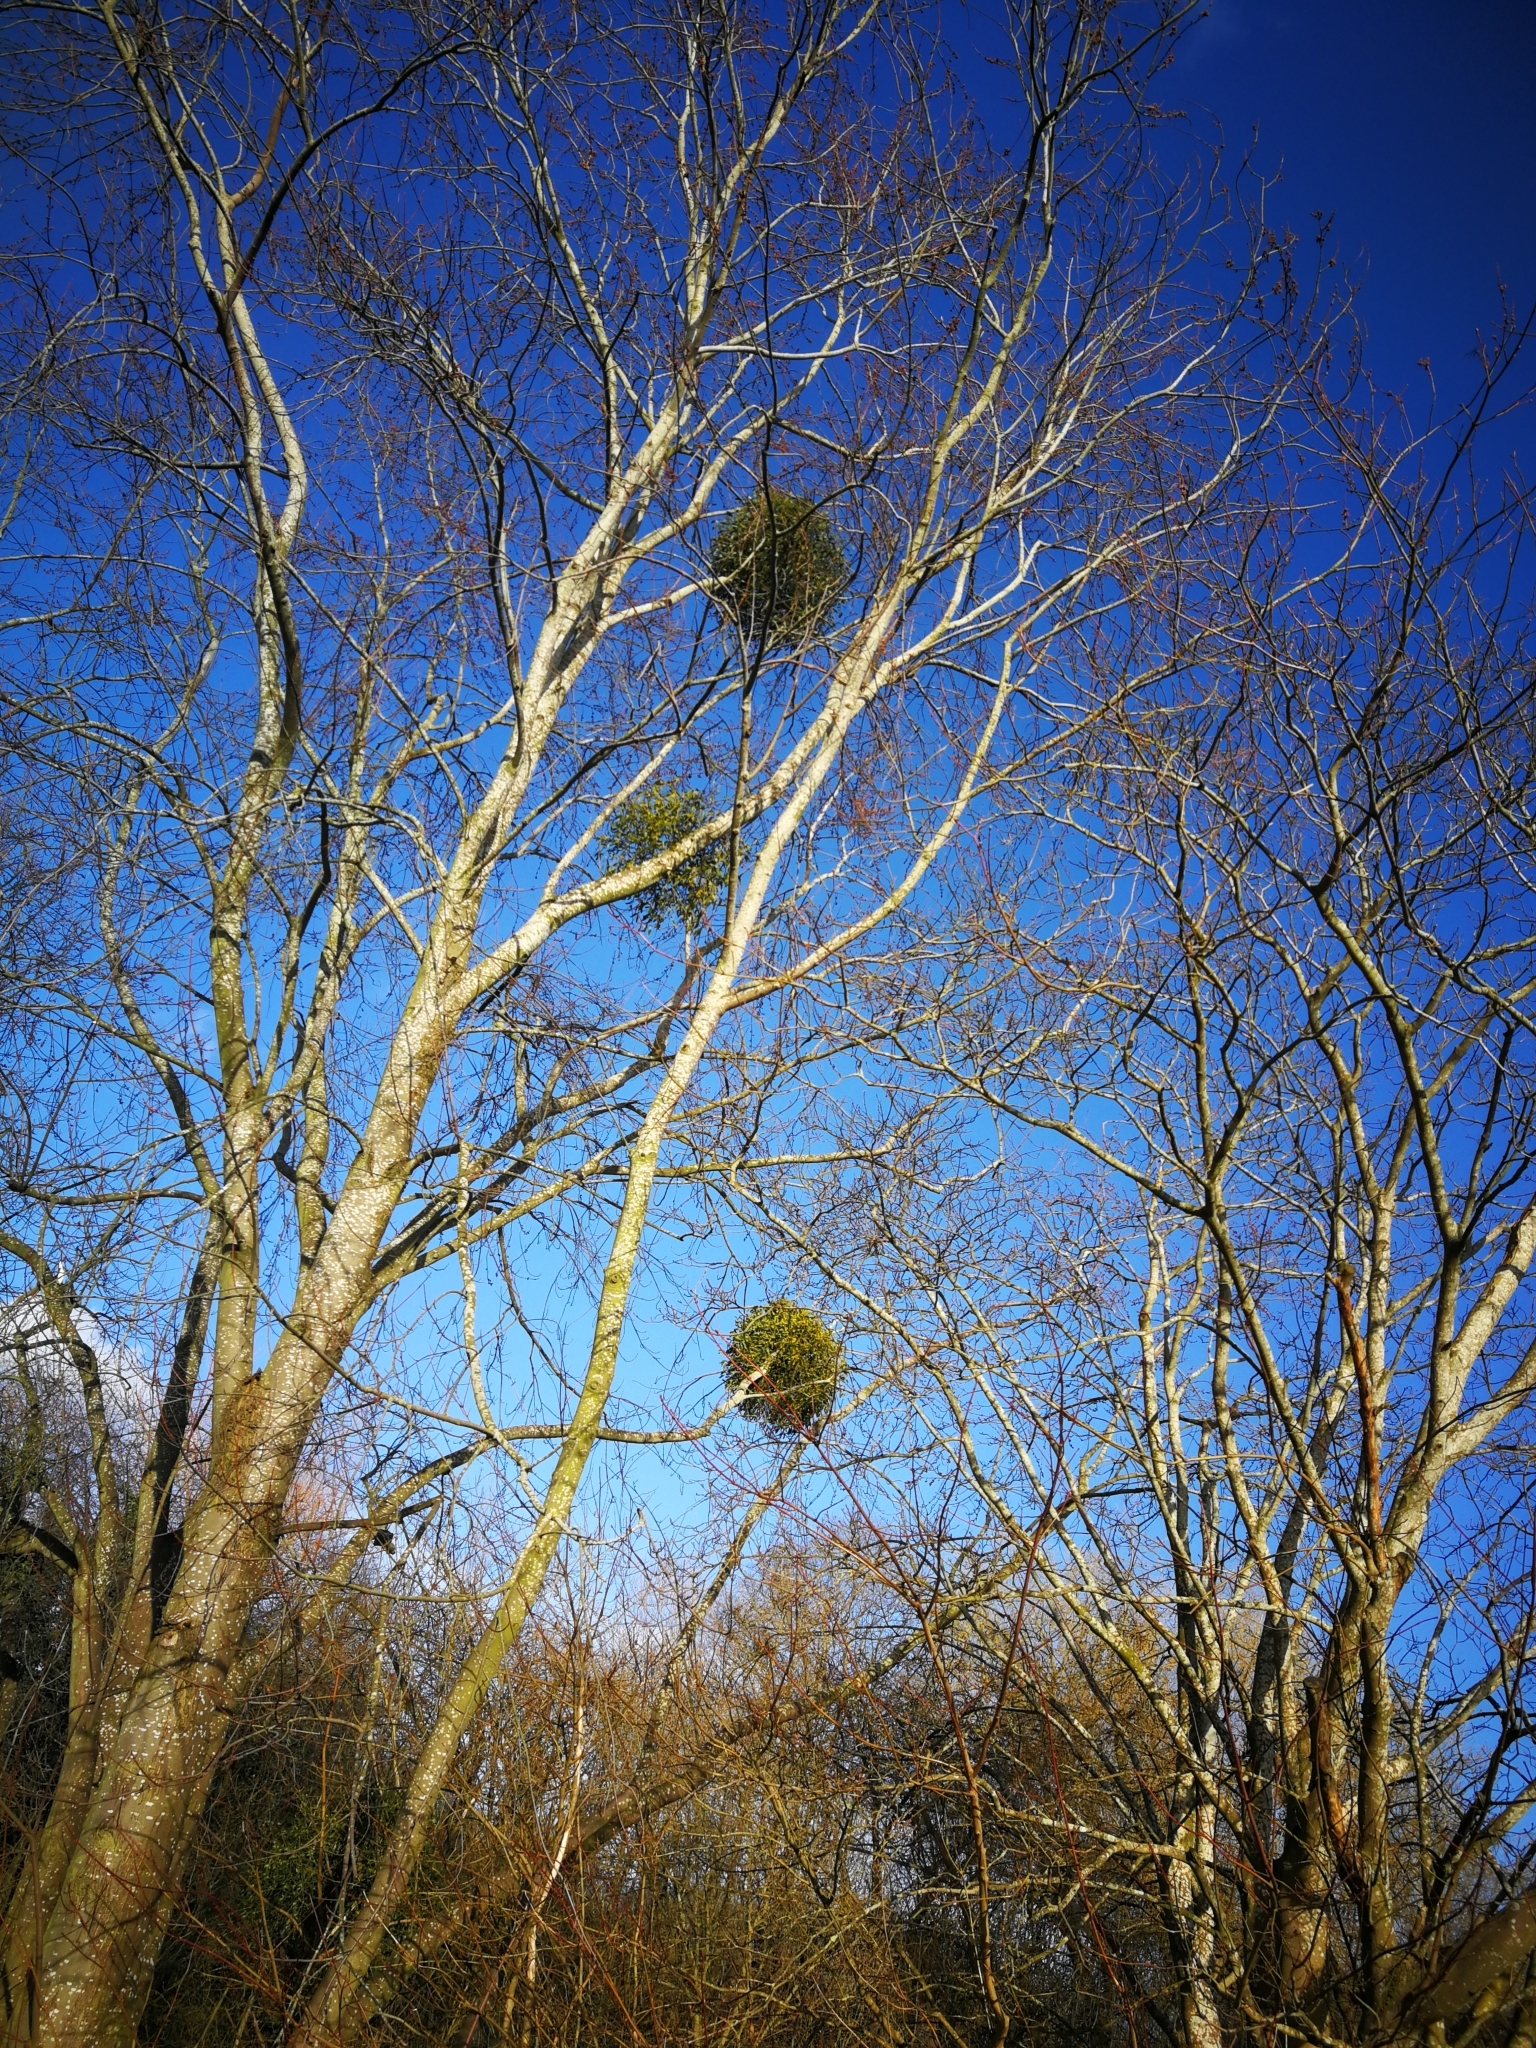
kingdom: Plantae
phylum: Tracheophyta
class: Magnoliopsida
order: Santalales
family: Viscaceae
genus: Viscum
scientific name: Viscum album
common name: Mistletoe
